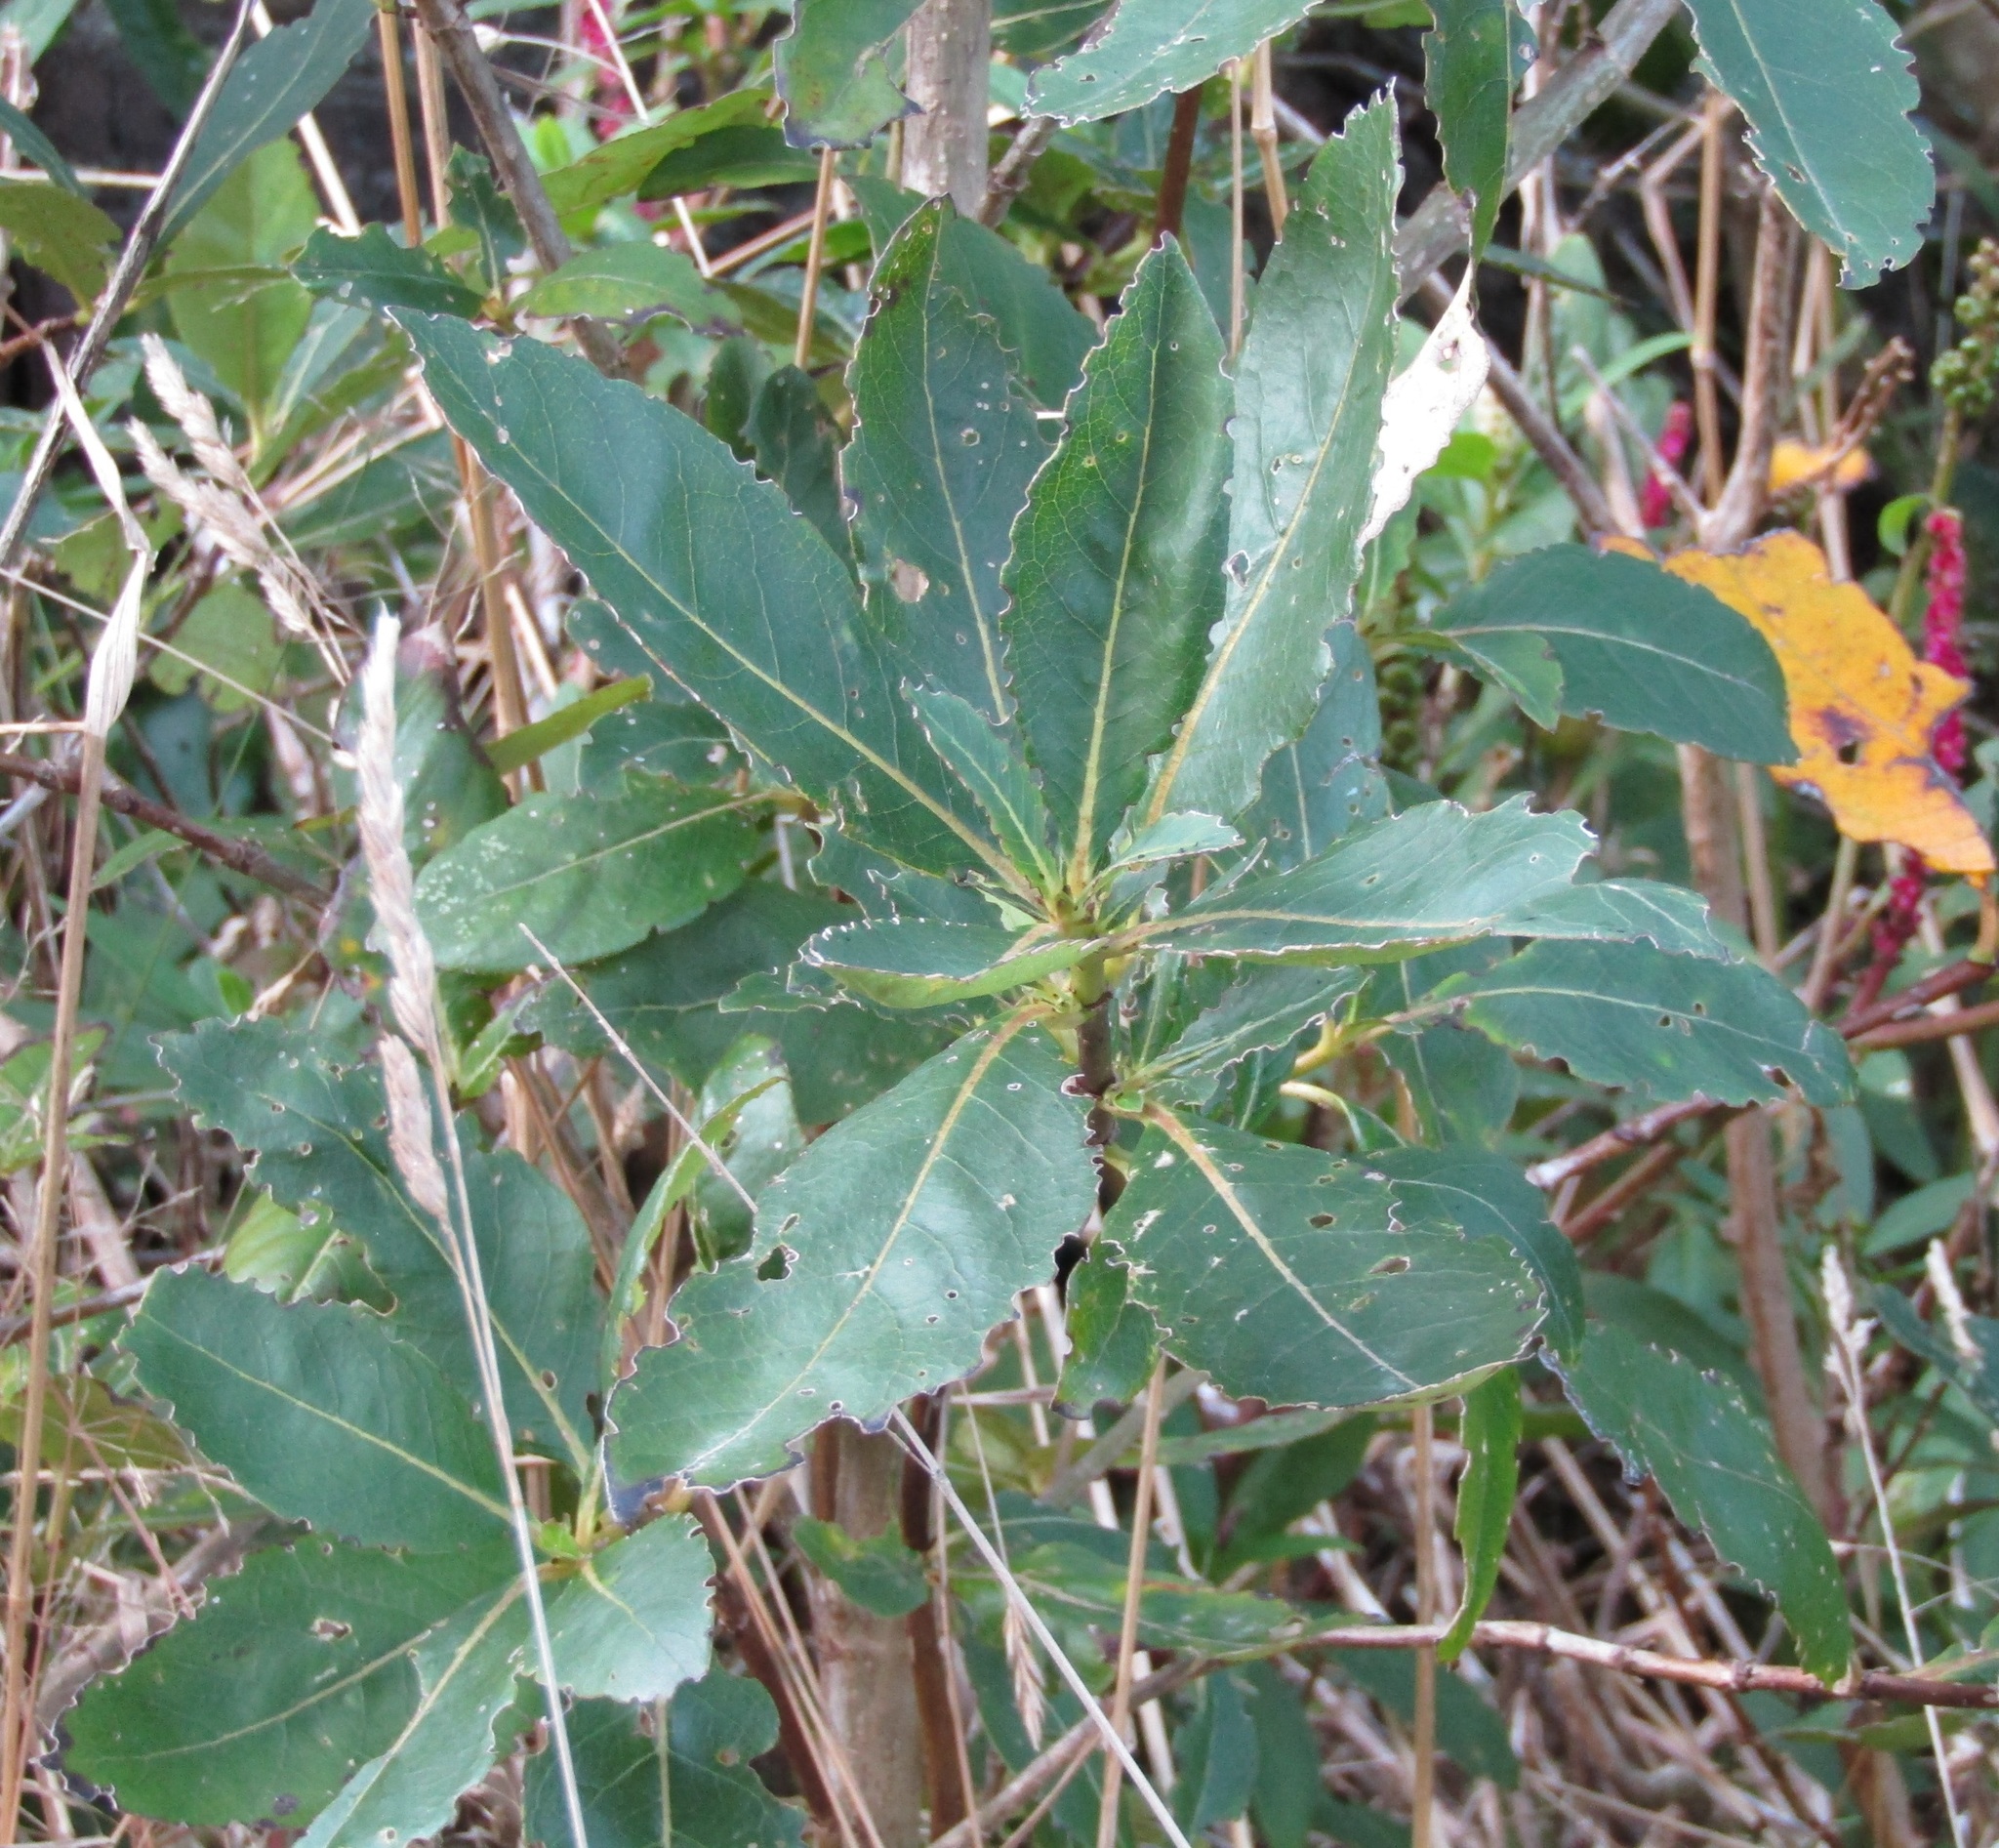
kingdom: Plantae
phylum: Tracheophyta
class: Magnoliopsida
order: Gentianales
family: Rubiaceae
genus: Coprosma
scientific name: Coprosma robusta
